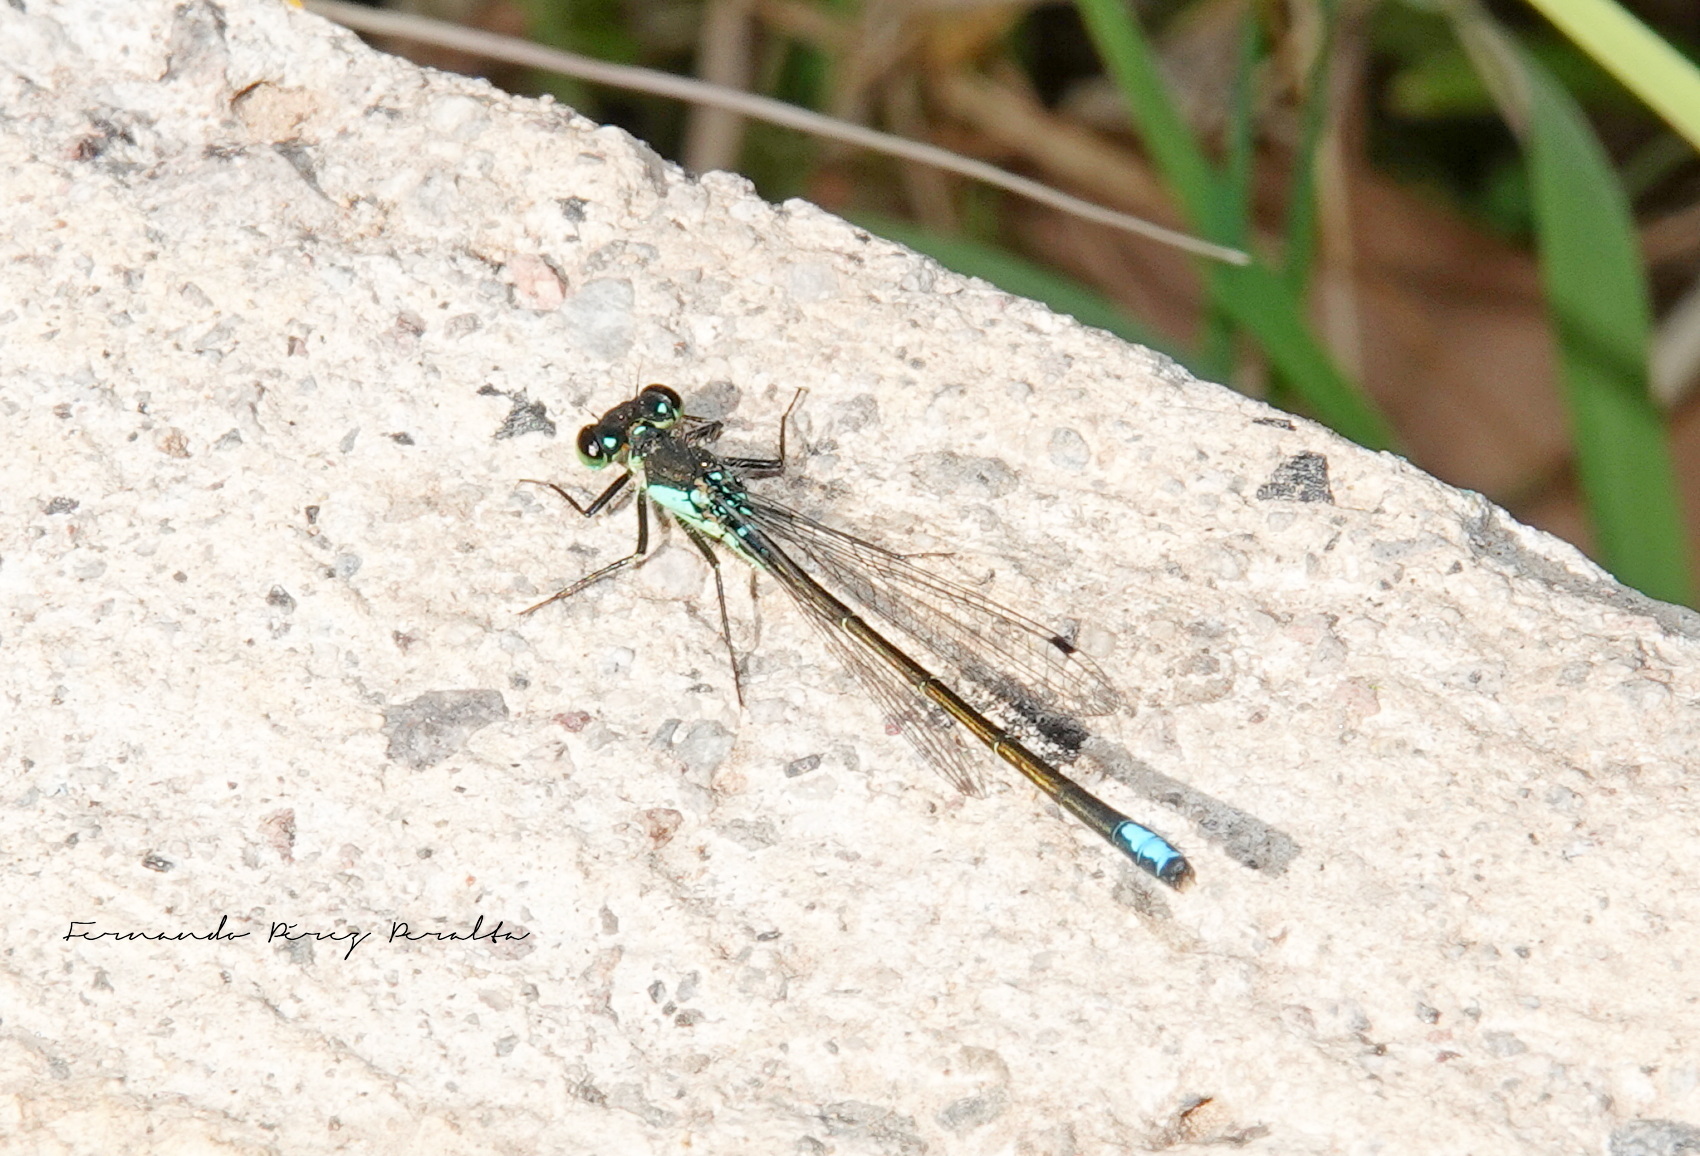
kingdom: Animalia
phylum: Arthropoda
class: Insecta
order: Odonata
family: Coenagrionidae
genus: Ischnura
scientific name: Ischnura denticollis
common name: Black-fronted forktail
